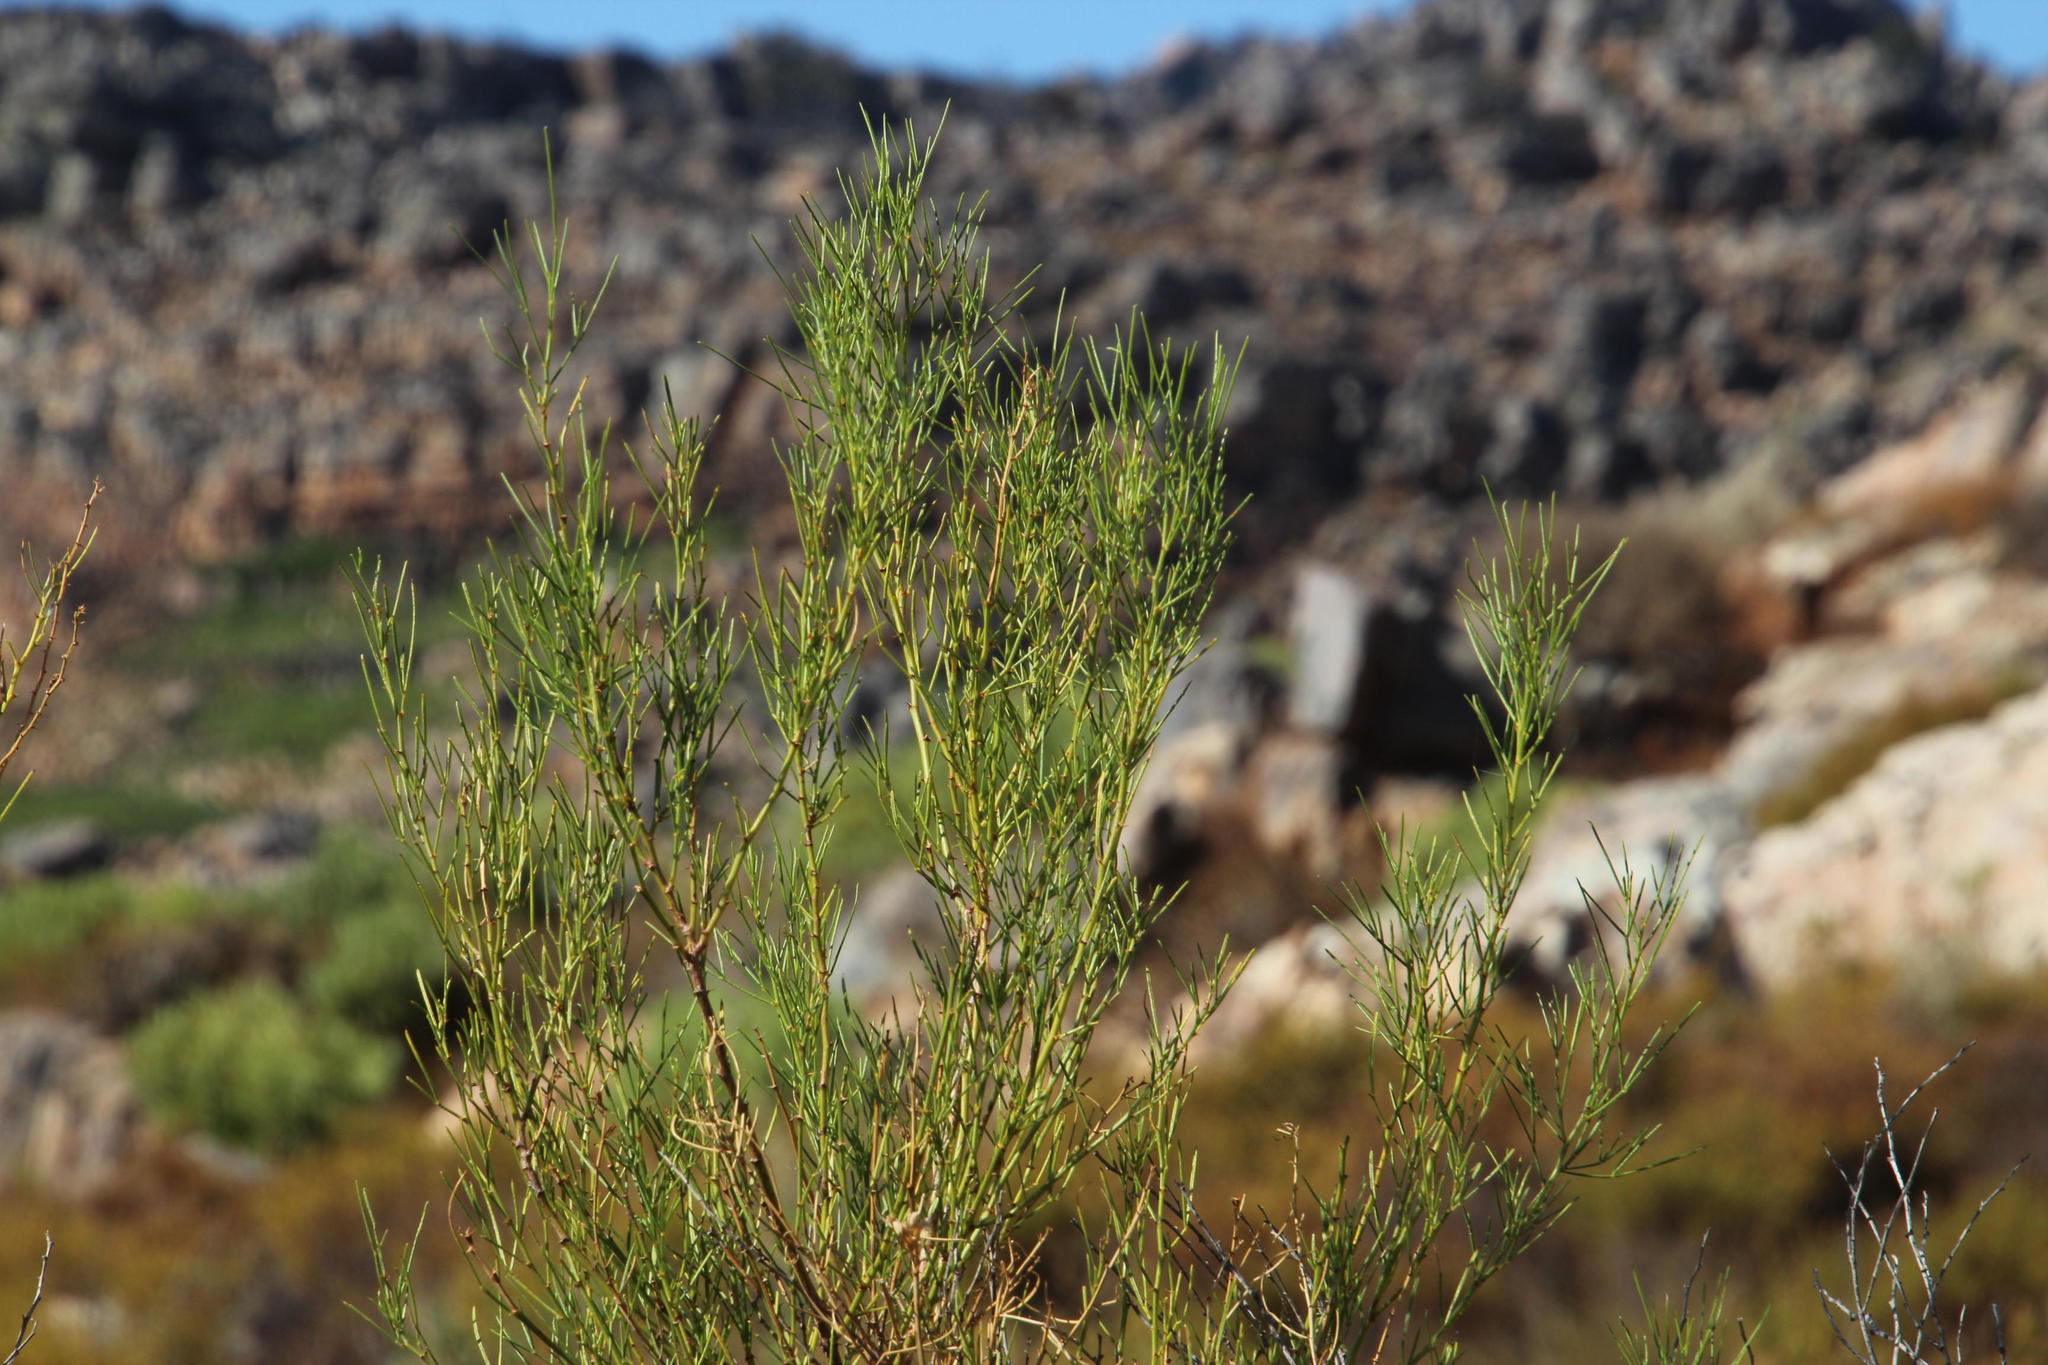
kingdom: Plantae
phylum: Tracheophyta
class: Magnoliopsida
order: Fabales
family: Fabaceae
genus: Psoralea
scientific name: Psoralea
